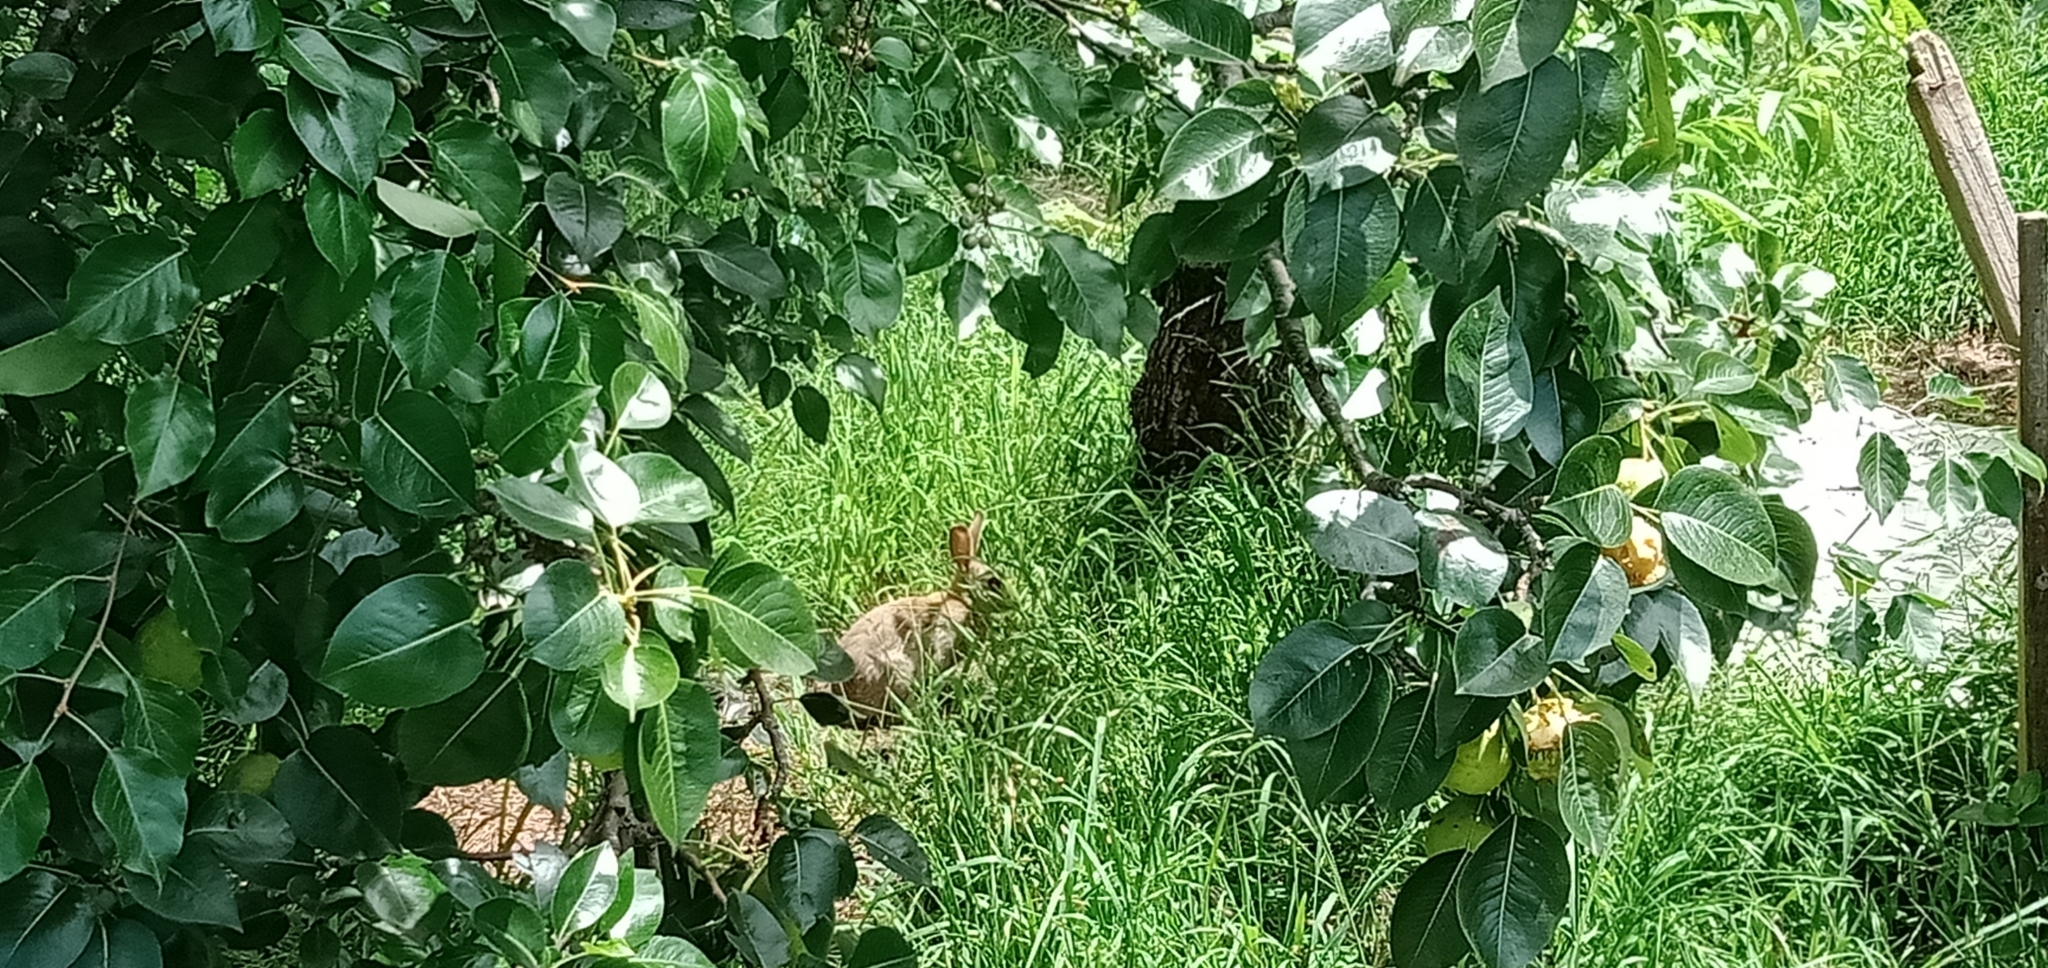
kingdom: Animalia
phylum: Chordata
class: Mammalia
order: Lagomorpha
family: Leporidae
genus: Oryctolagus
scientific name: Oryctolagus cuniculus
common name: European rabbit
